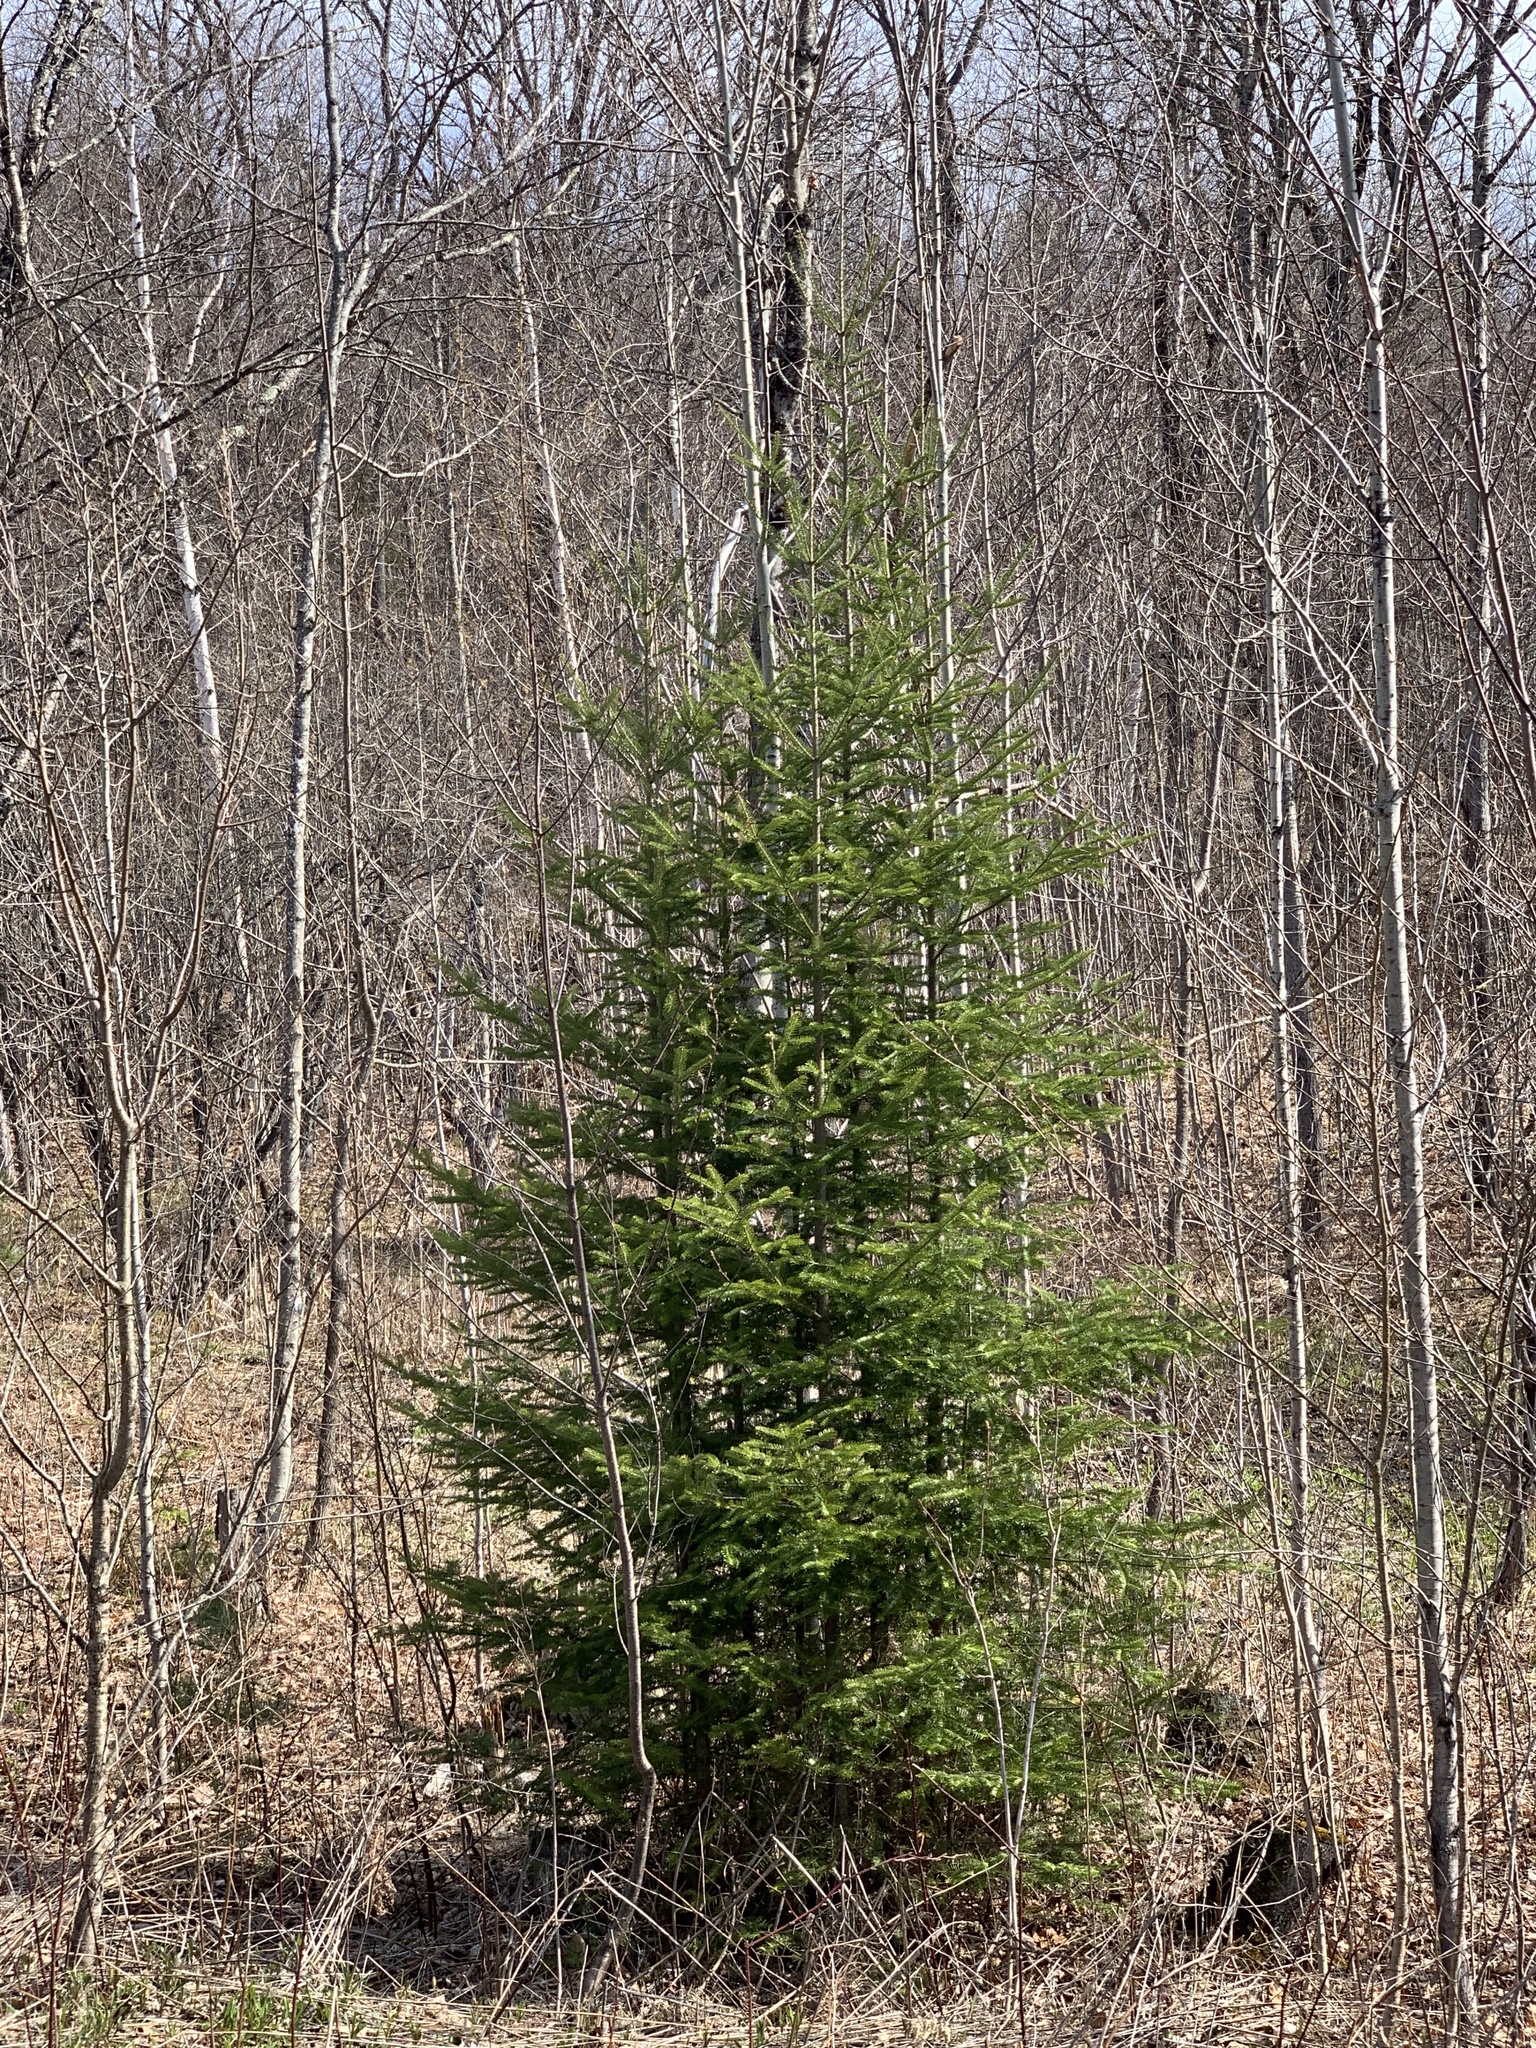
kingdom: Plantae
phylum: Tracheophyta
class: Pinopsida
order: Pinales
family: Pinaceae
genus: Abies
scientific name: Abies balsamea
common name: Balsam fir
